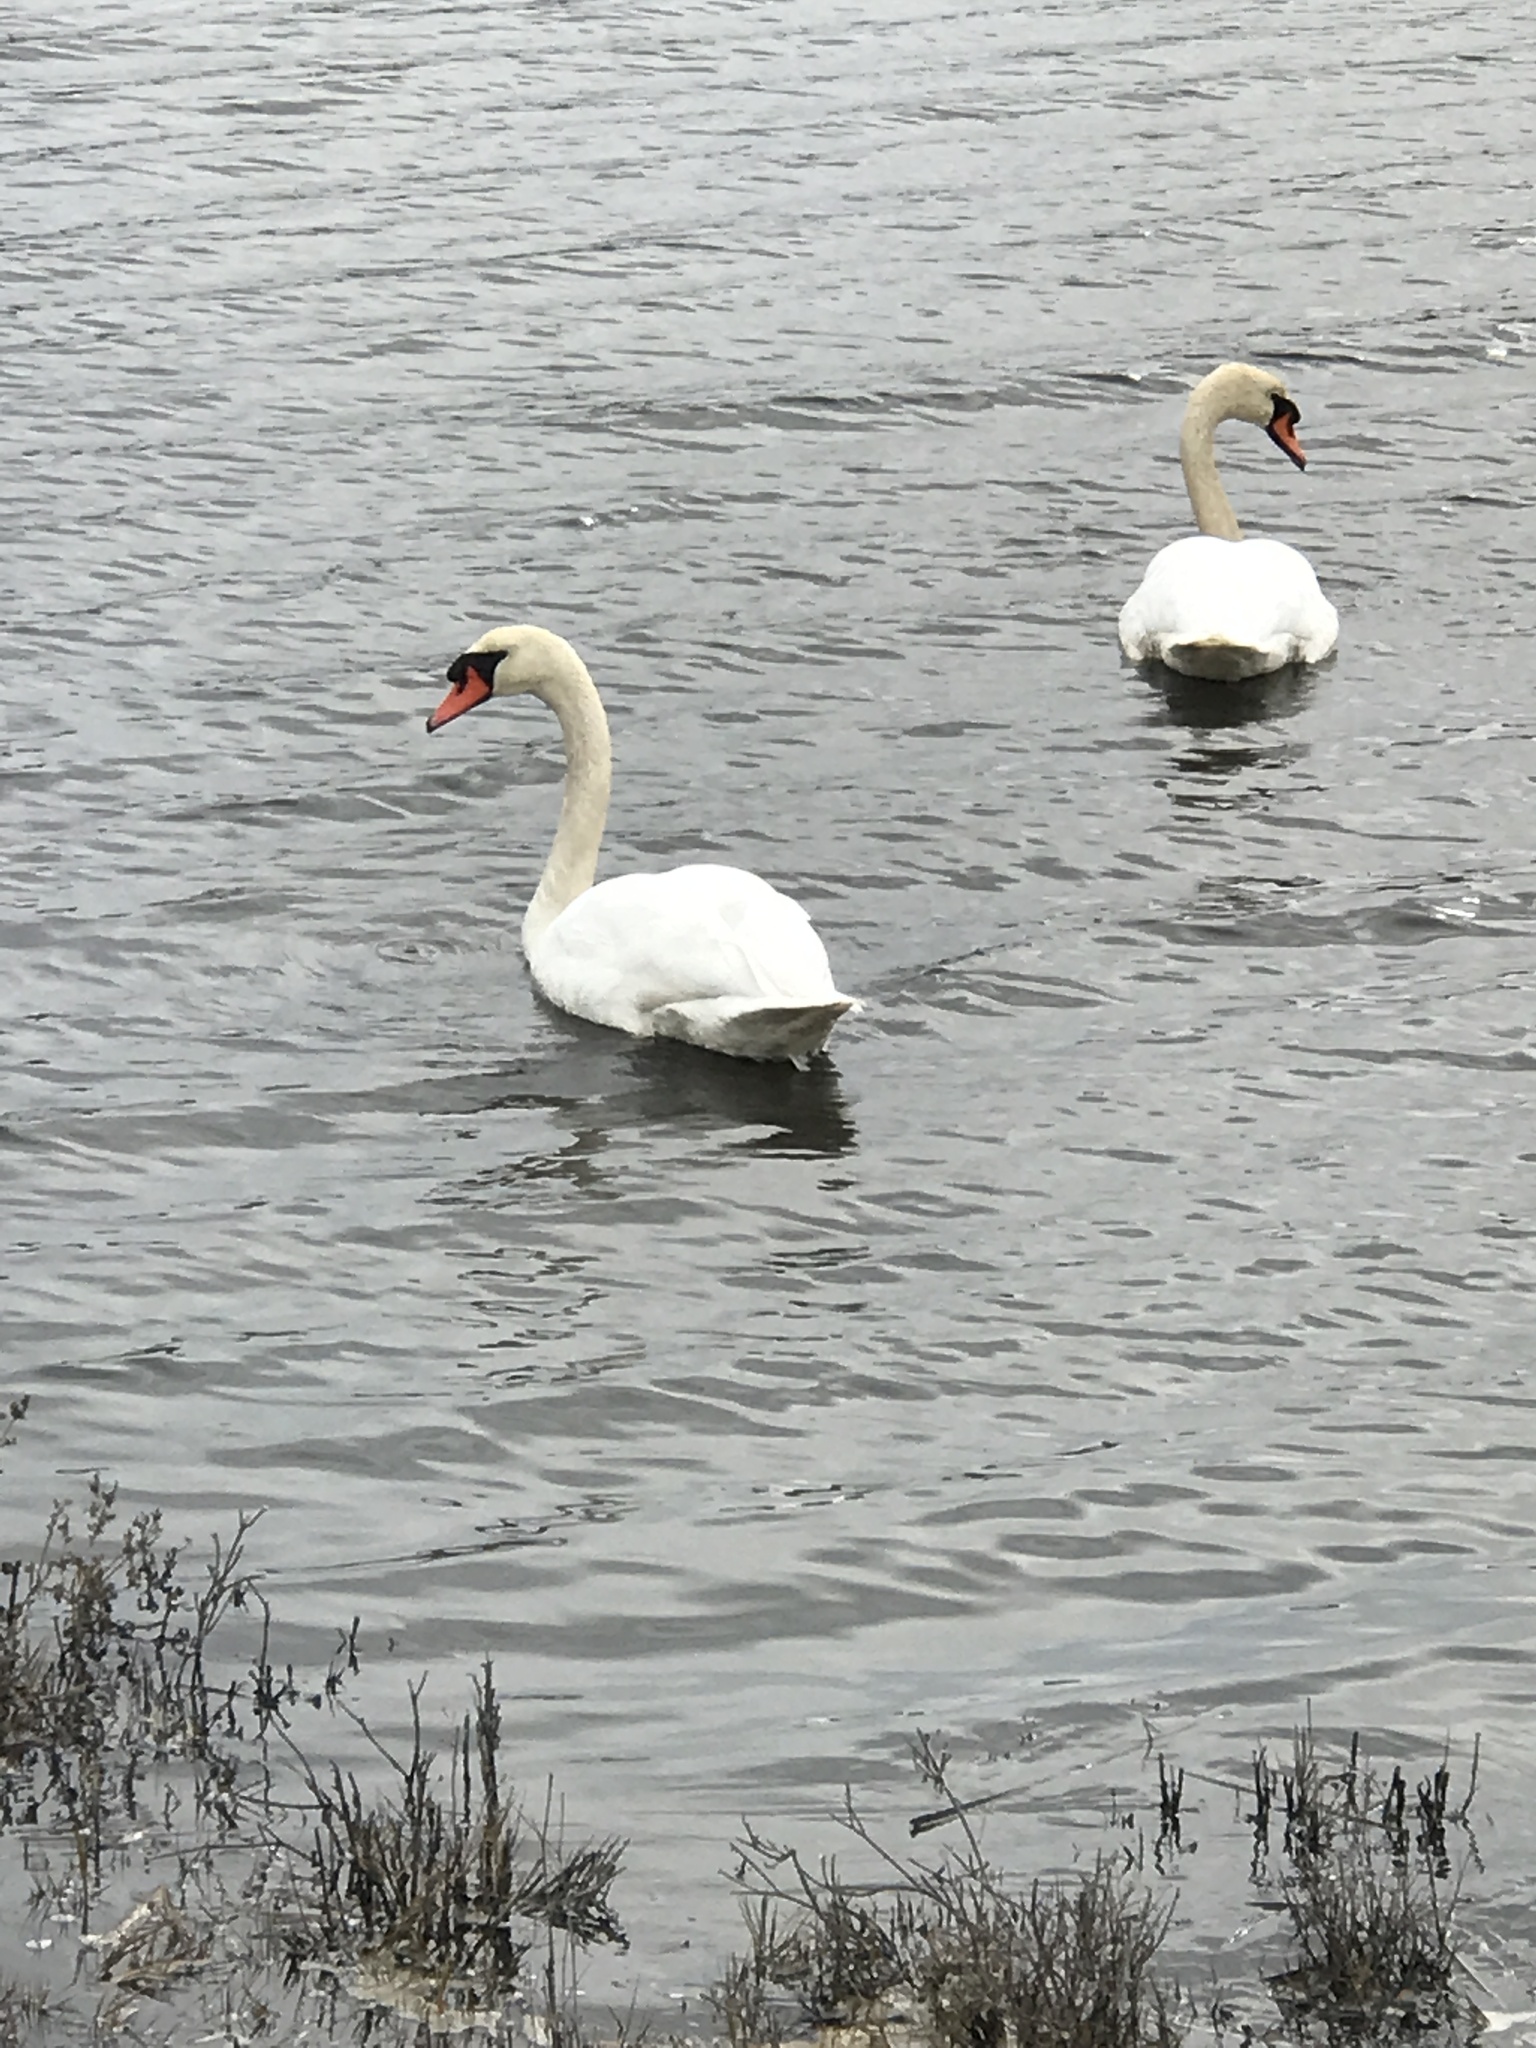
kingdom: Animalia
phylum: Chordata
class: Aves
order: Anseriformes
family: Anatidae
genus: Cygnus
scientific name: Cygnus olor
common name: Mute swan
